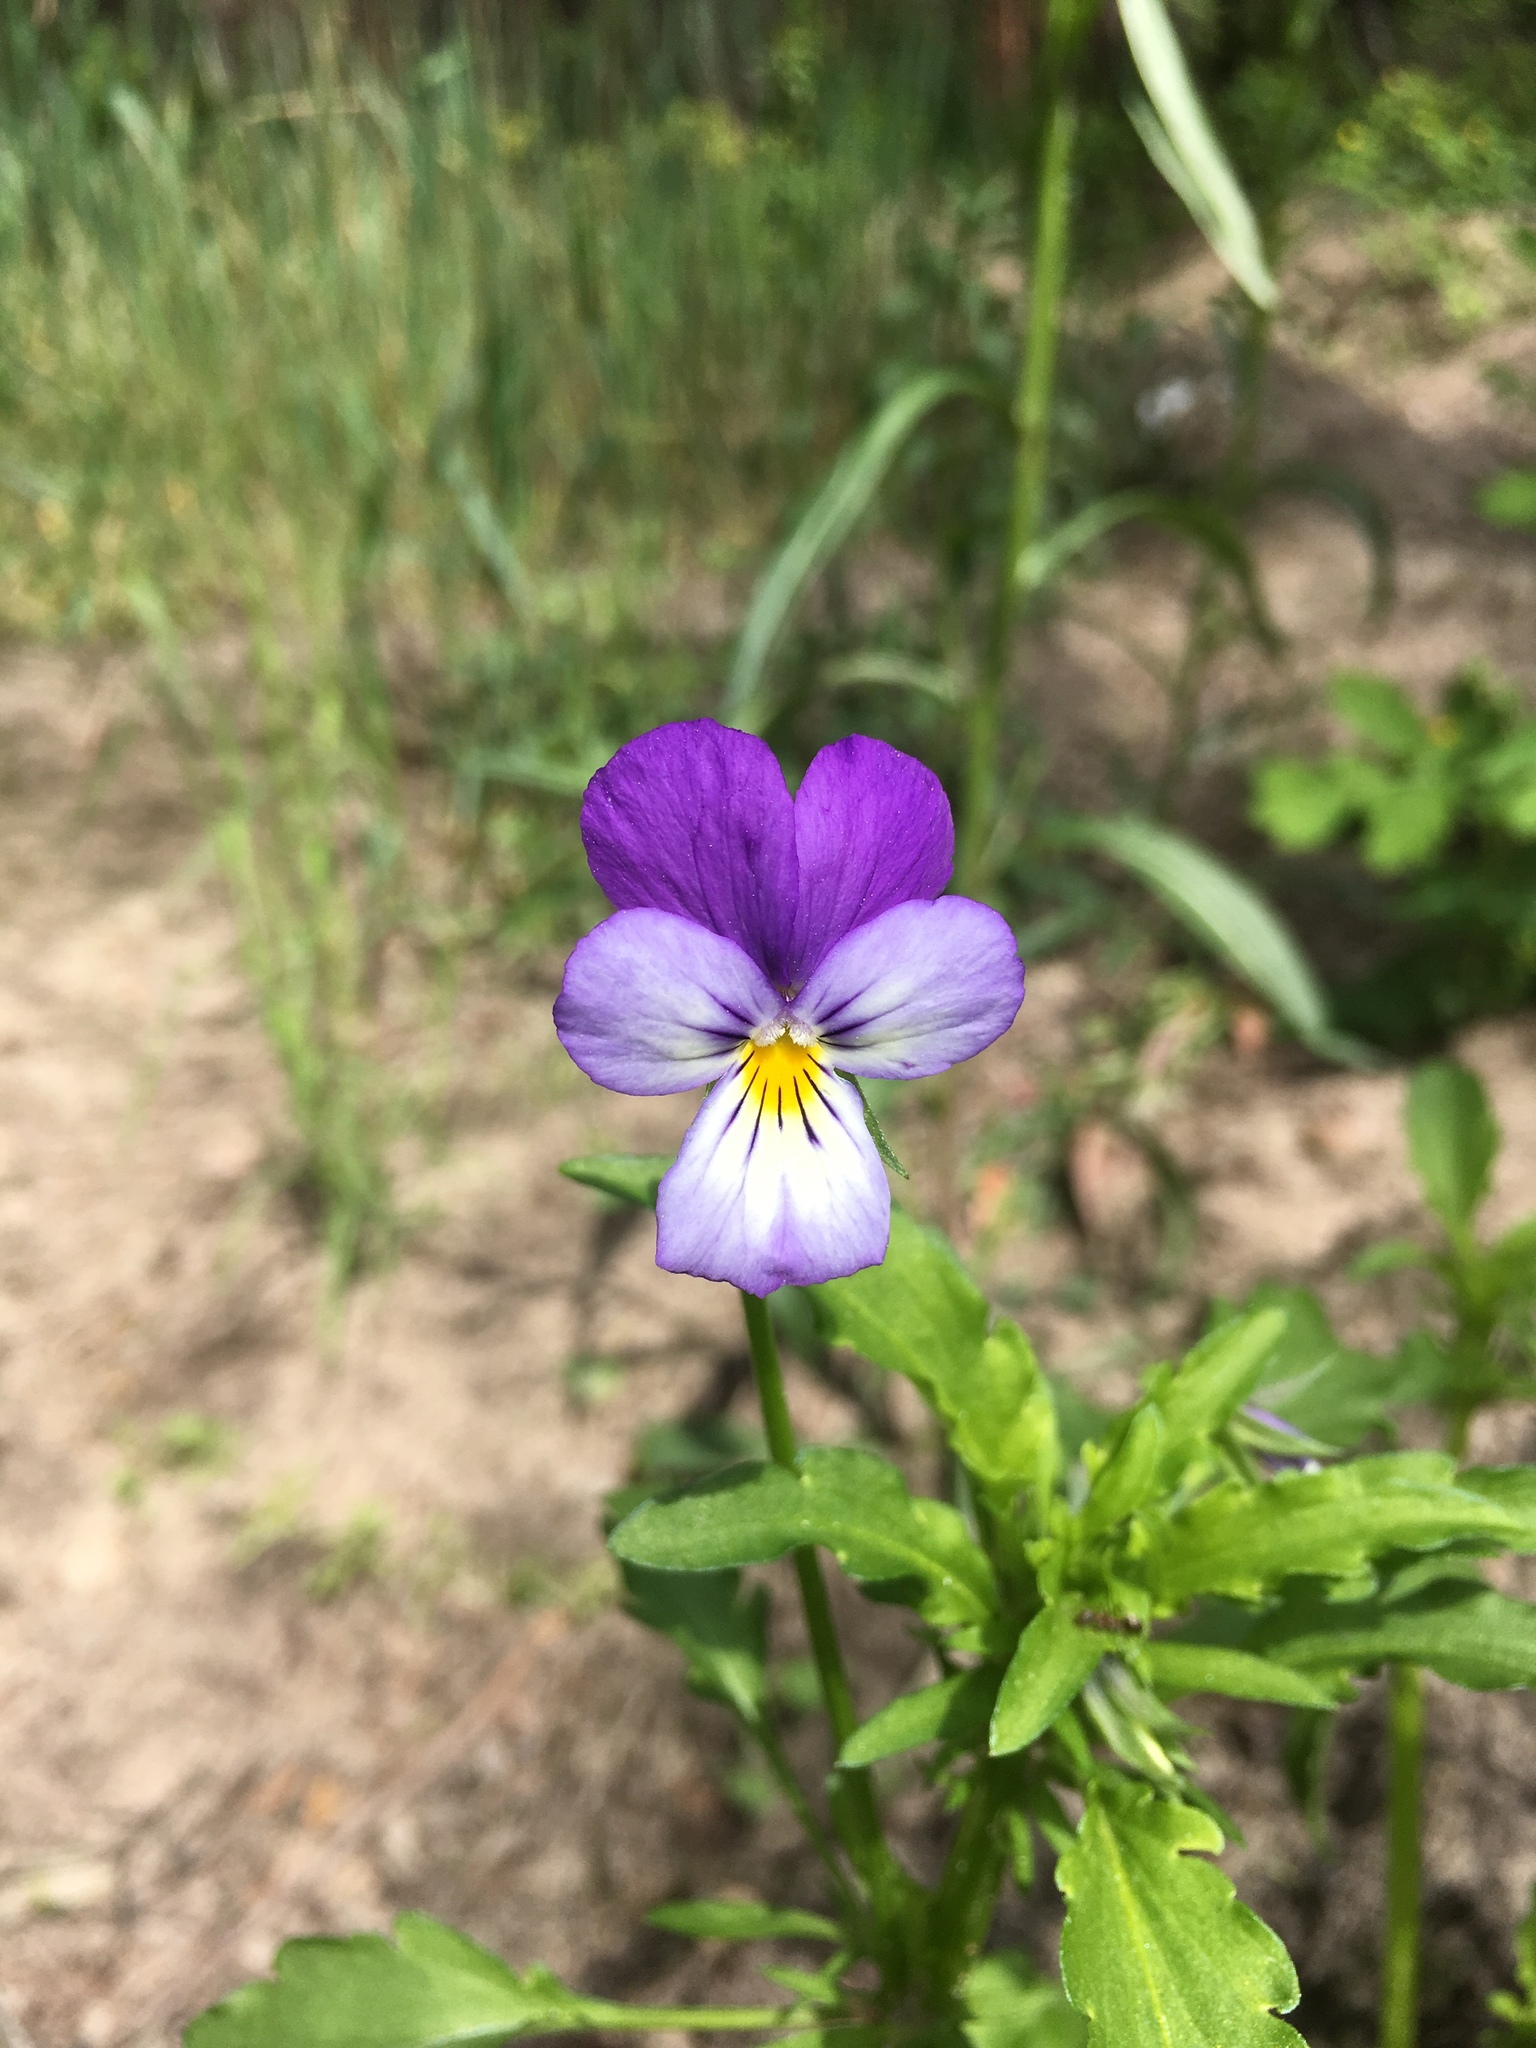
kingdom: Plantae
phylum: Tracheophyta
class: Magnoliopsida
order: Malpighiales
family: Violaceae
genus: Viola
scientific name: Viola tricolor
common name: Pansy
